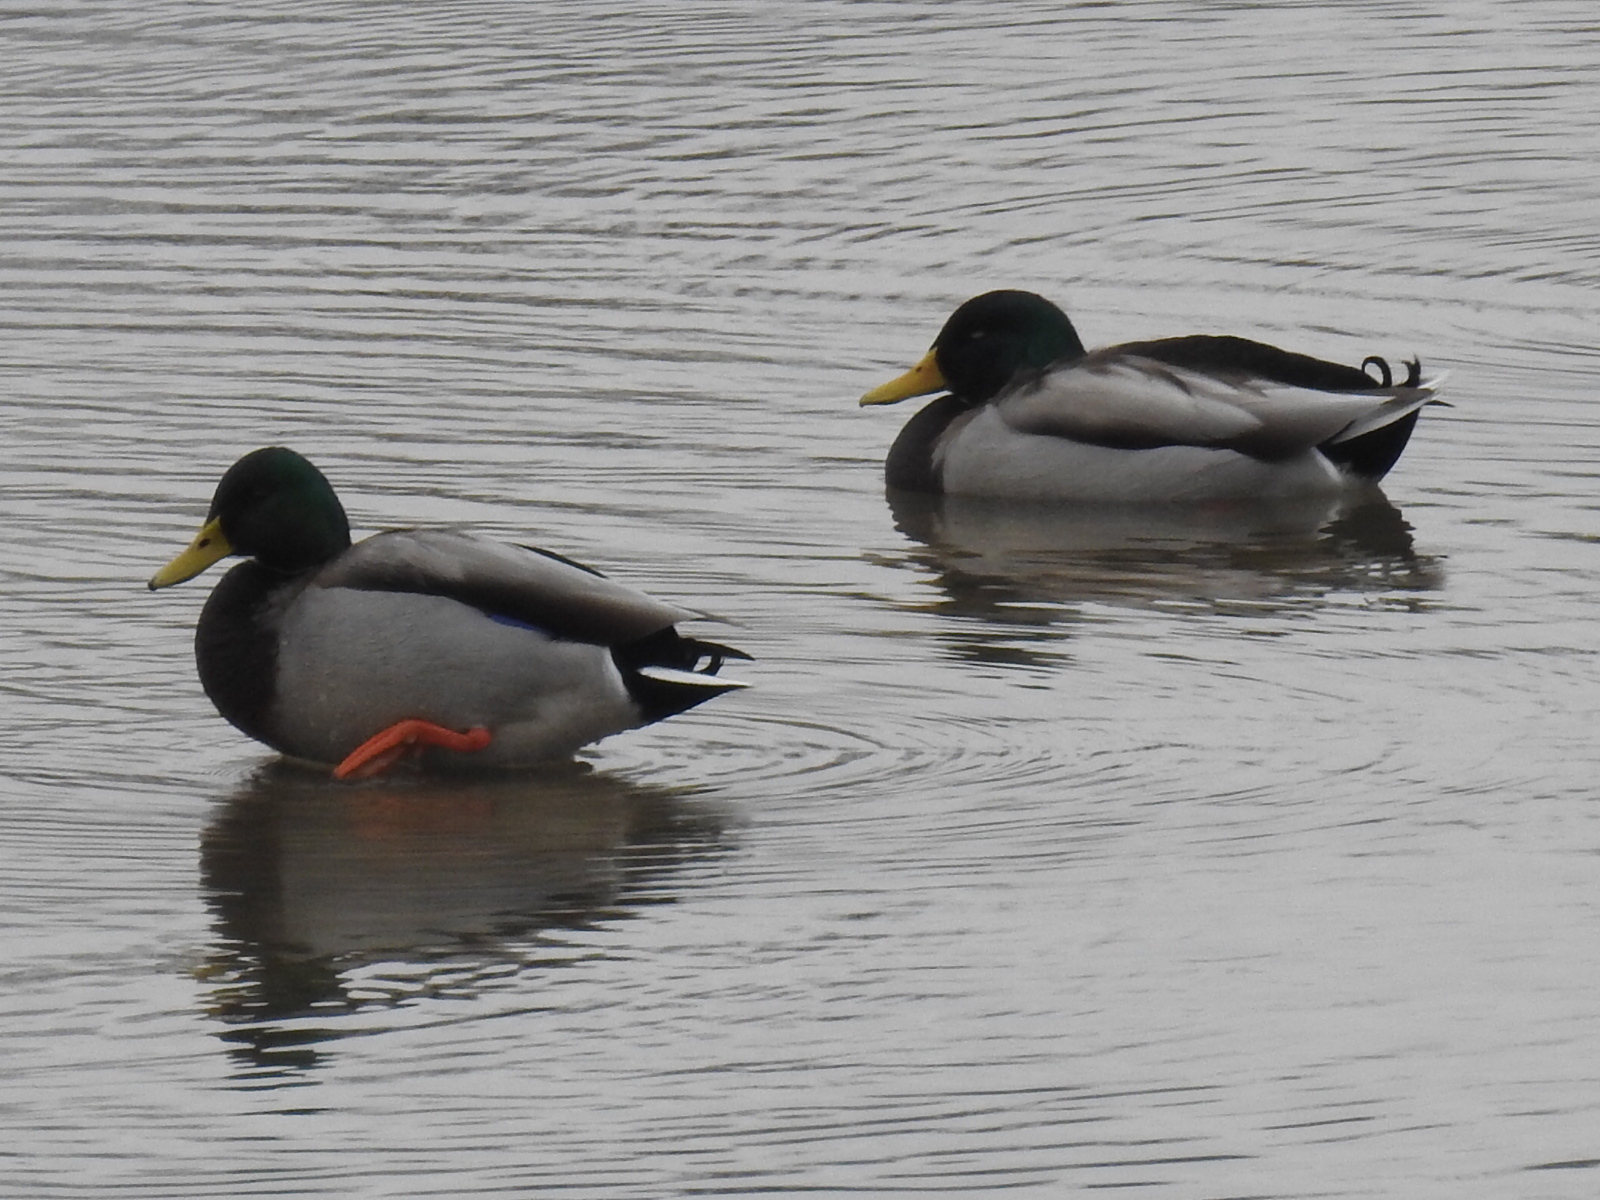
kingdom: Animalia
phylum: Chordata
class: Aves
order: Anseriformes
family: Anatidae
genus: Anas
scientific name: Anas platyrhynchos
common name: Mallard
